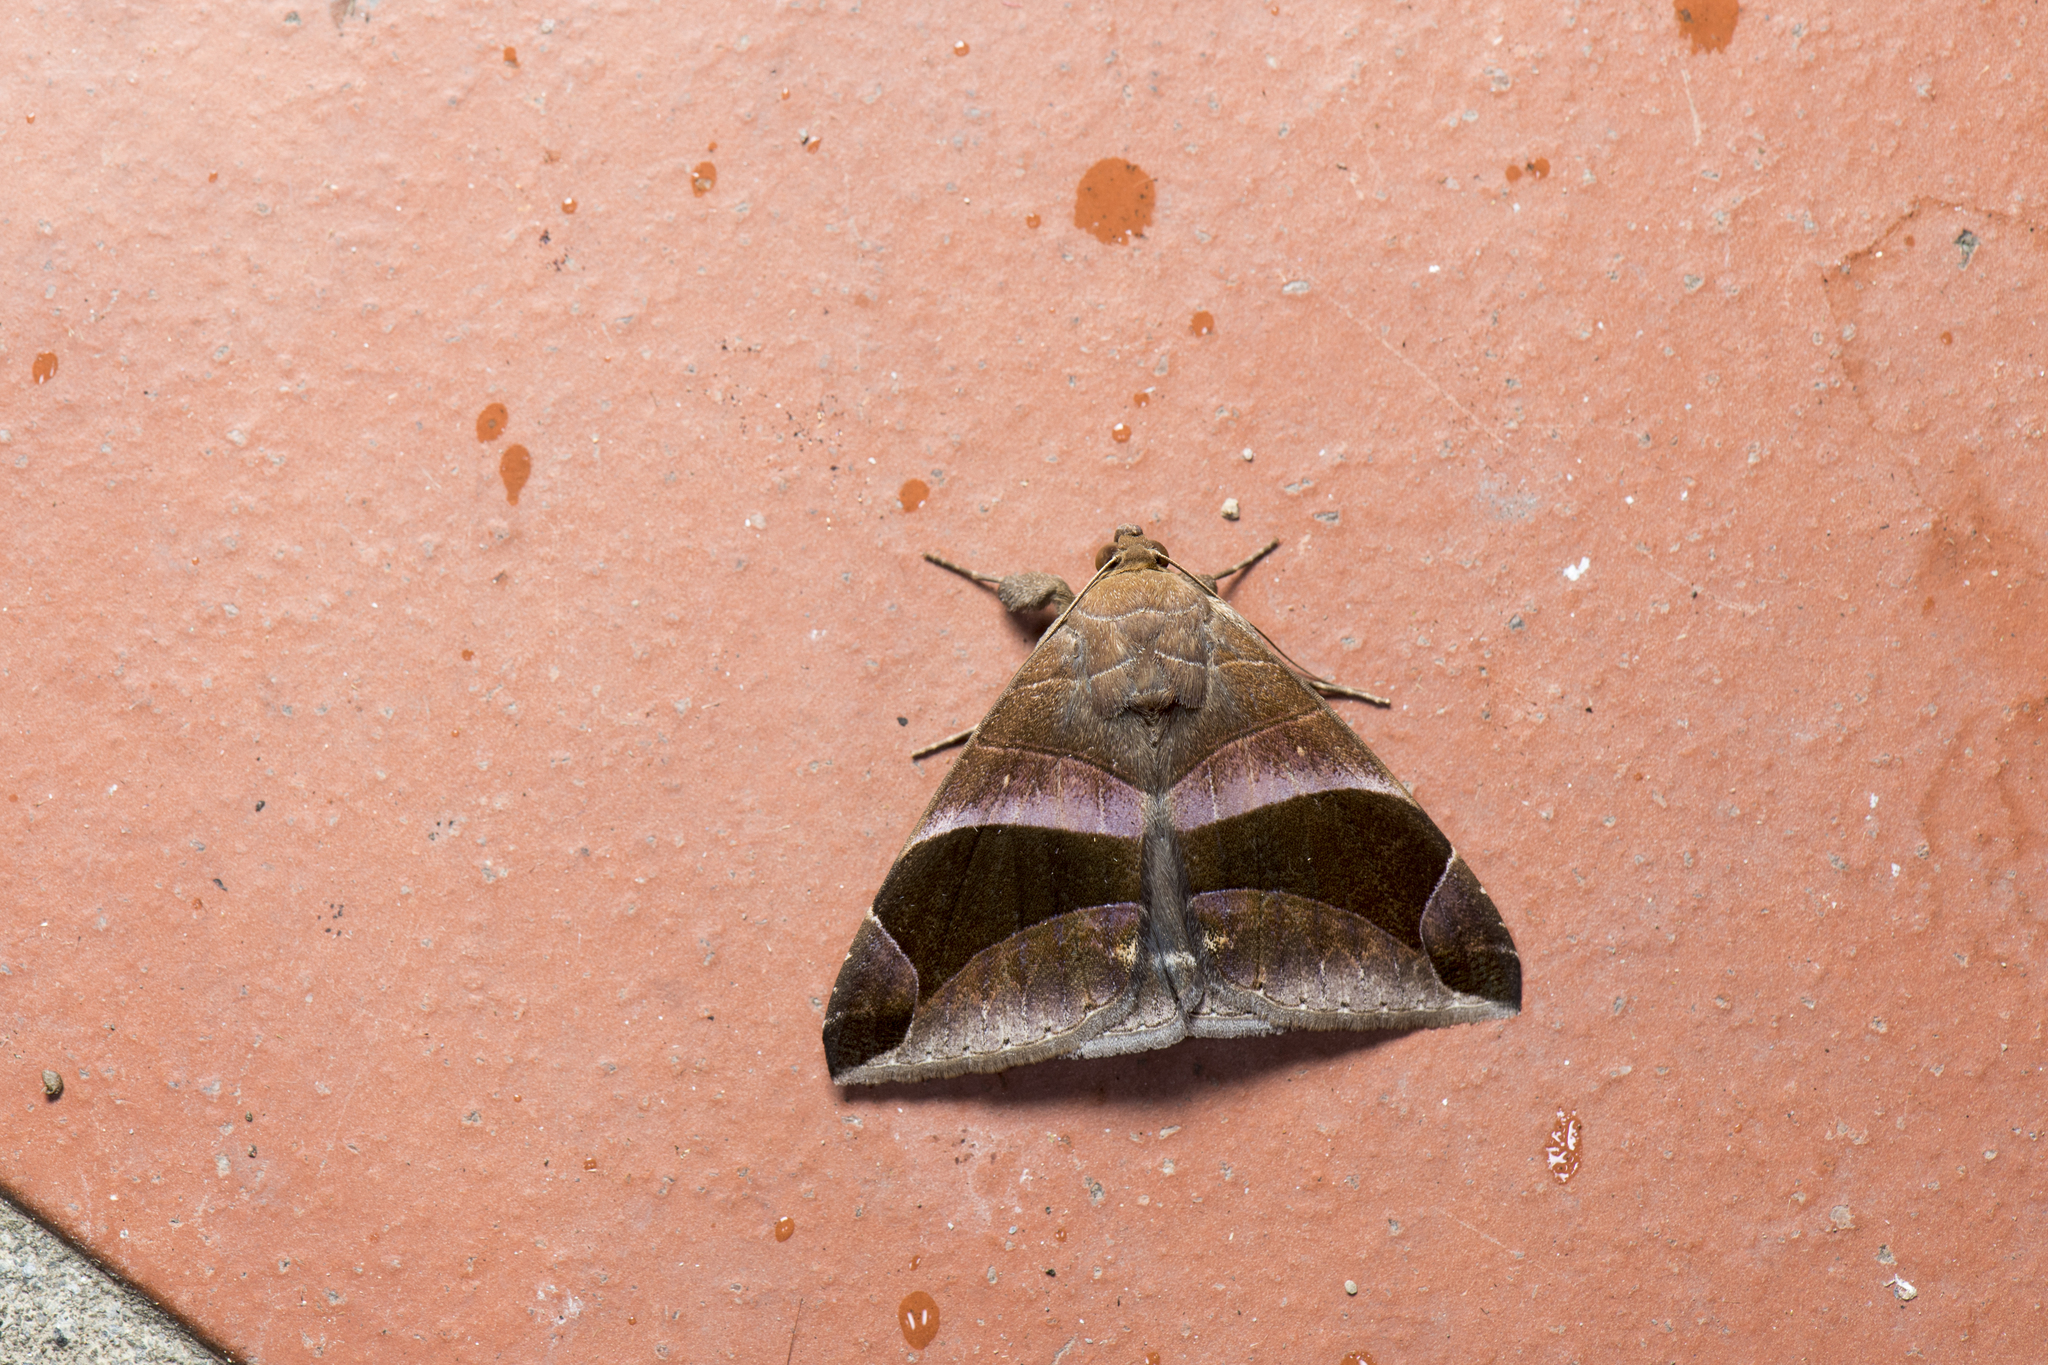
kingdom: Animalia
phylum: Arthropoda
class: Insecta
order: Lepidoptera
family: Erebidae
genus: Bastilla
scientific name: Bastilla acuta
